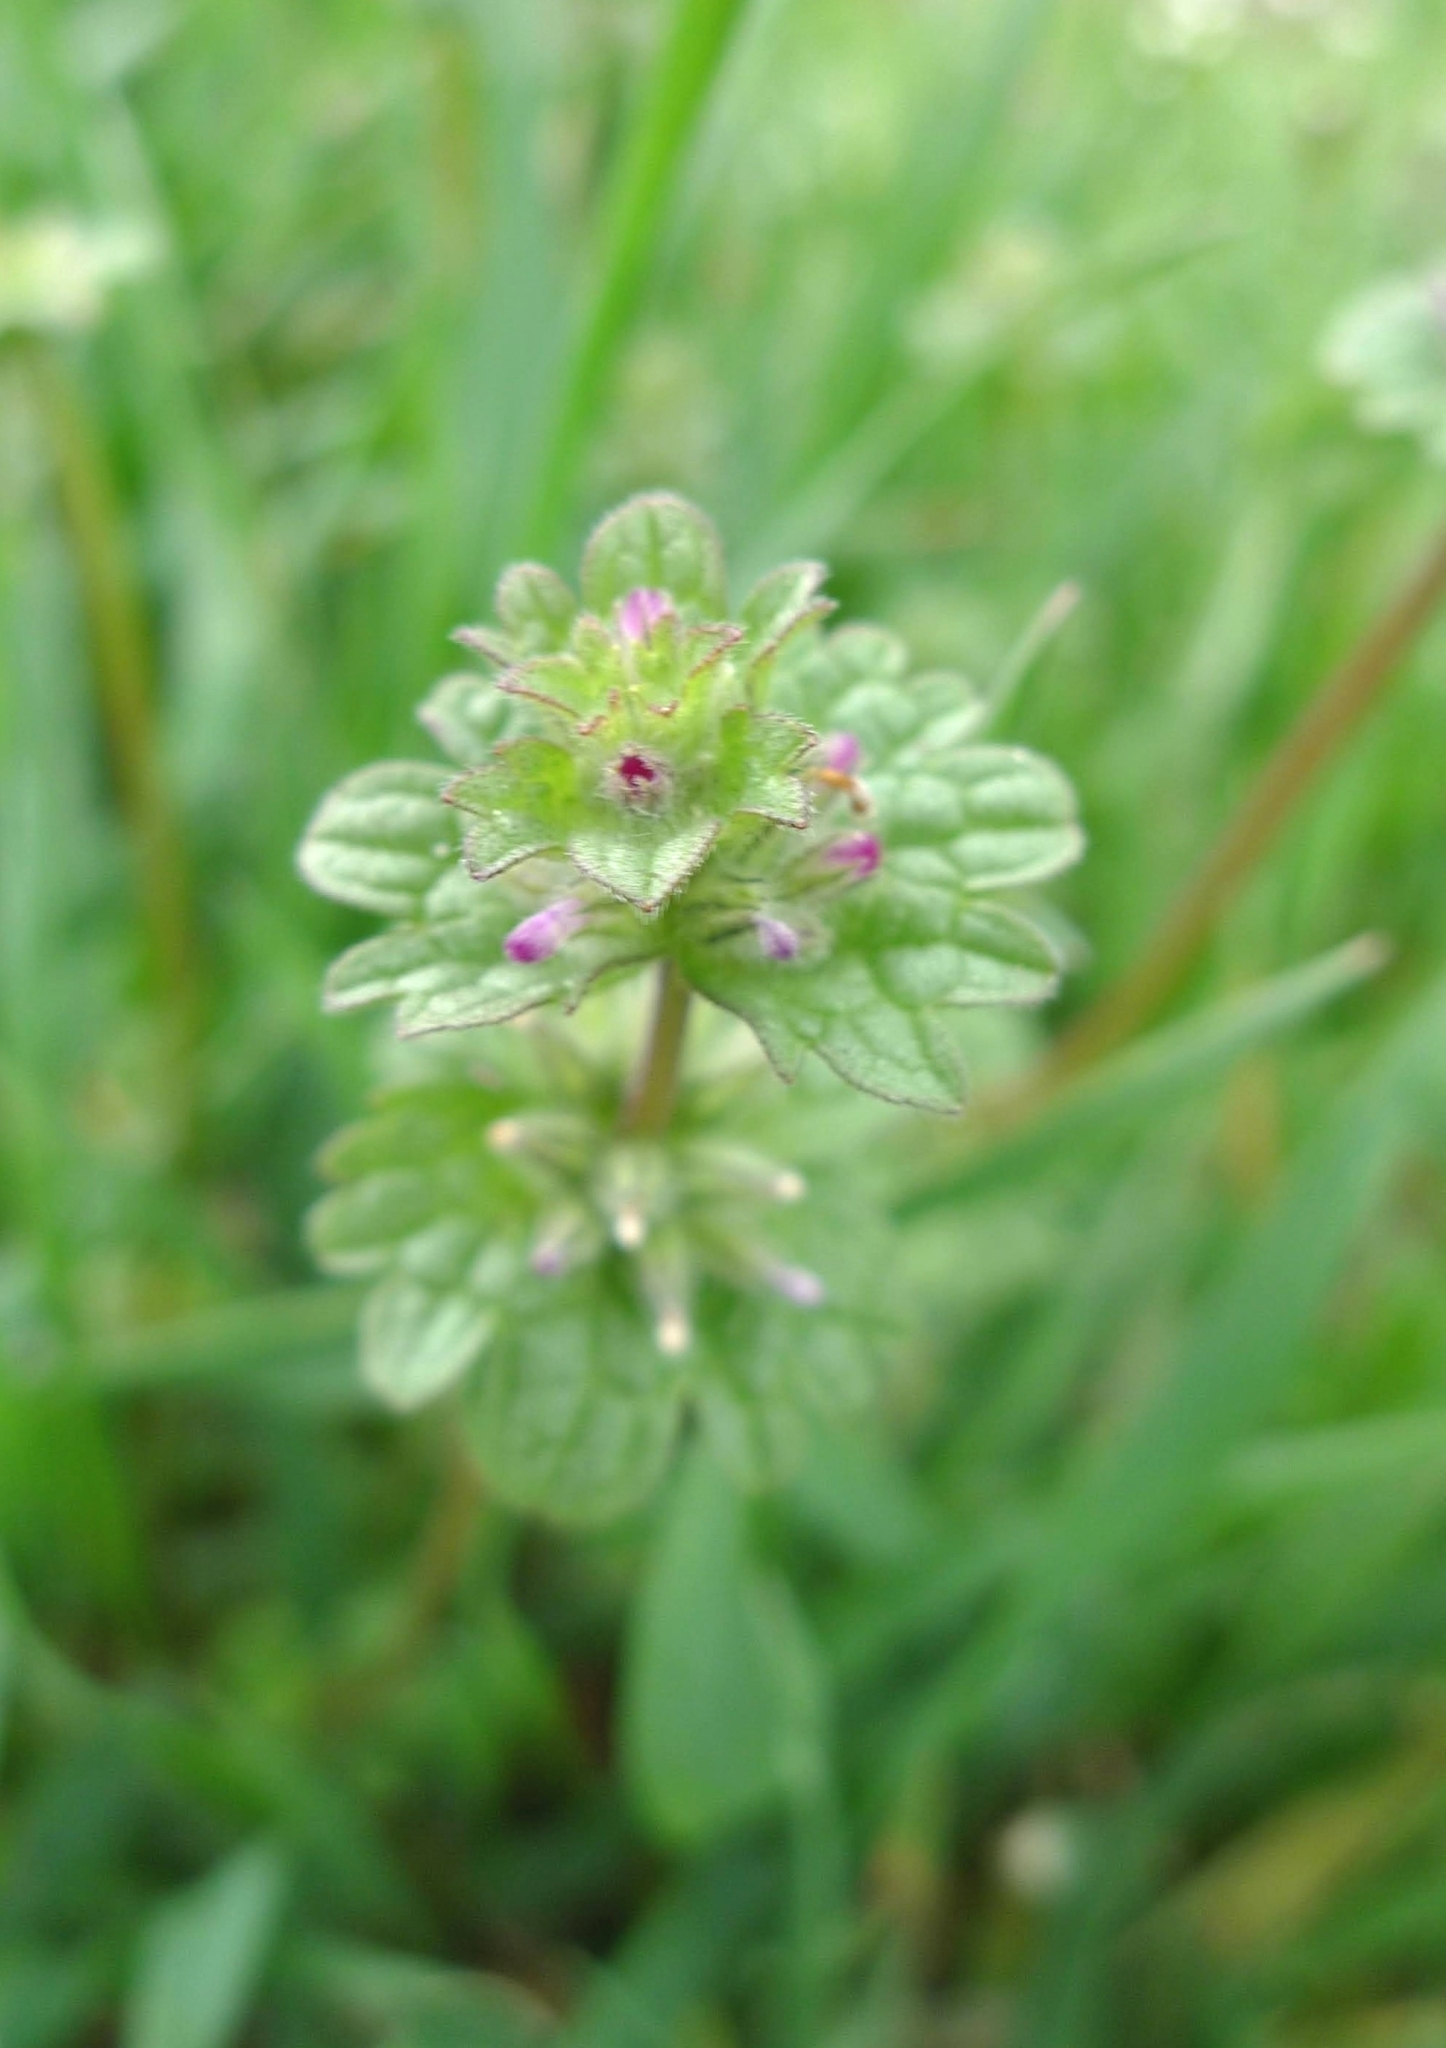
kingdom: Plantae
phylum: Tracheophyta
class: Magnoliopsida
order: Lamiales
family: Lamiaceae
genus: Lamium
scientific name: Lamium amplexicaule
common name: Henbit dead-nettle
